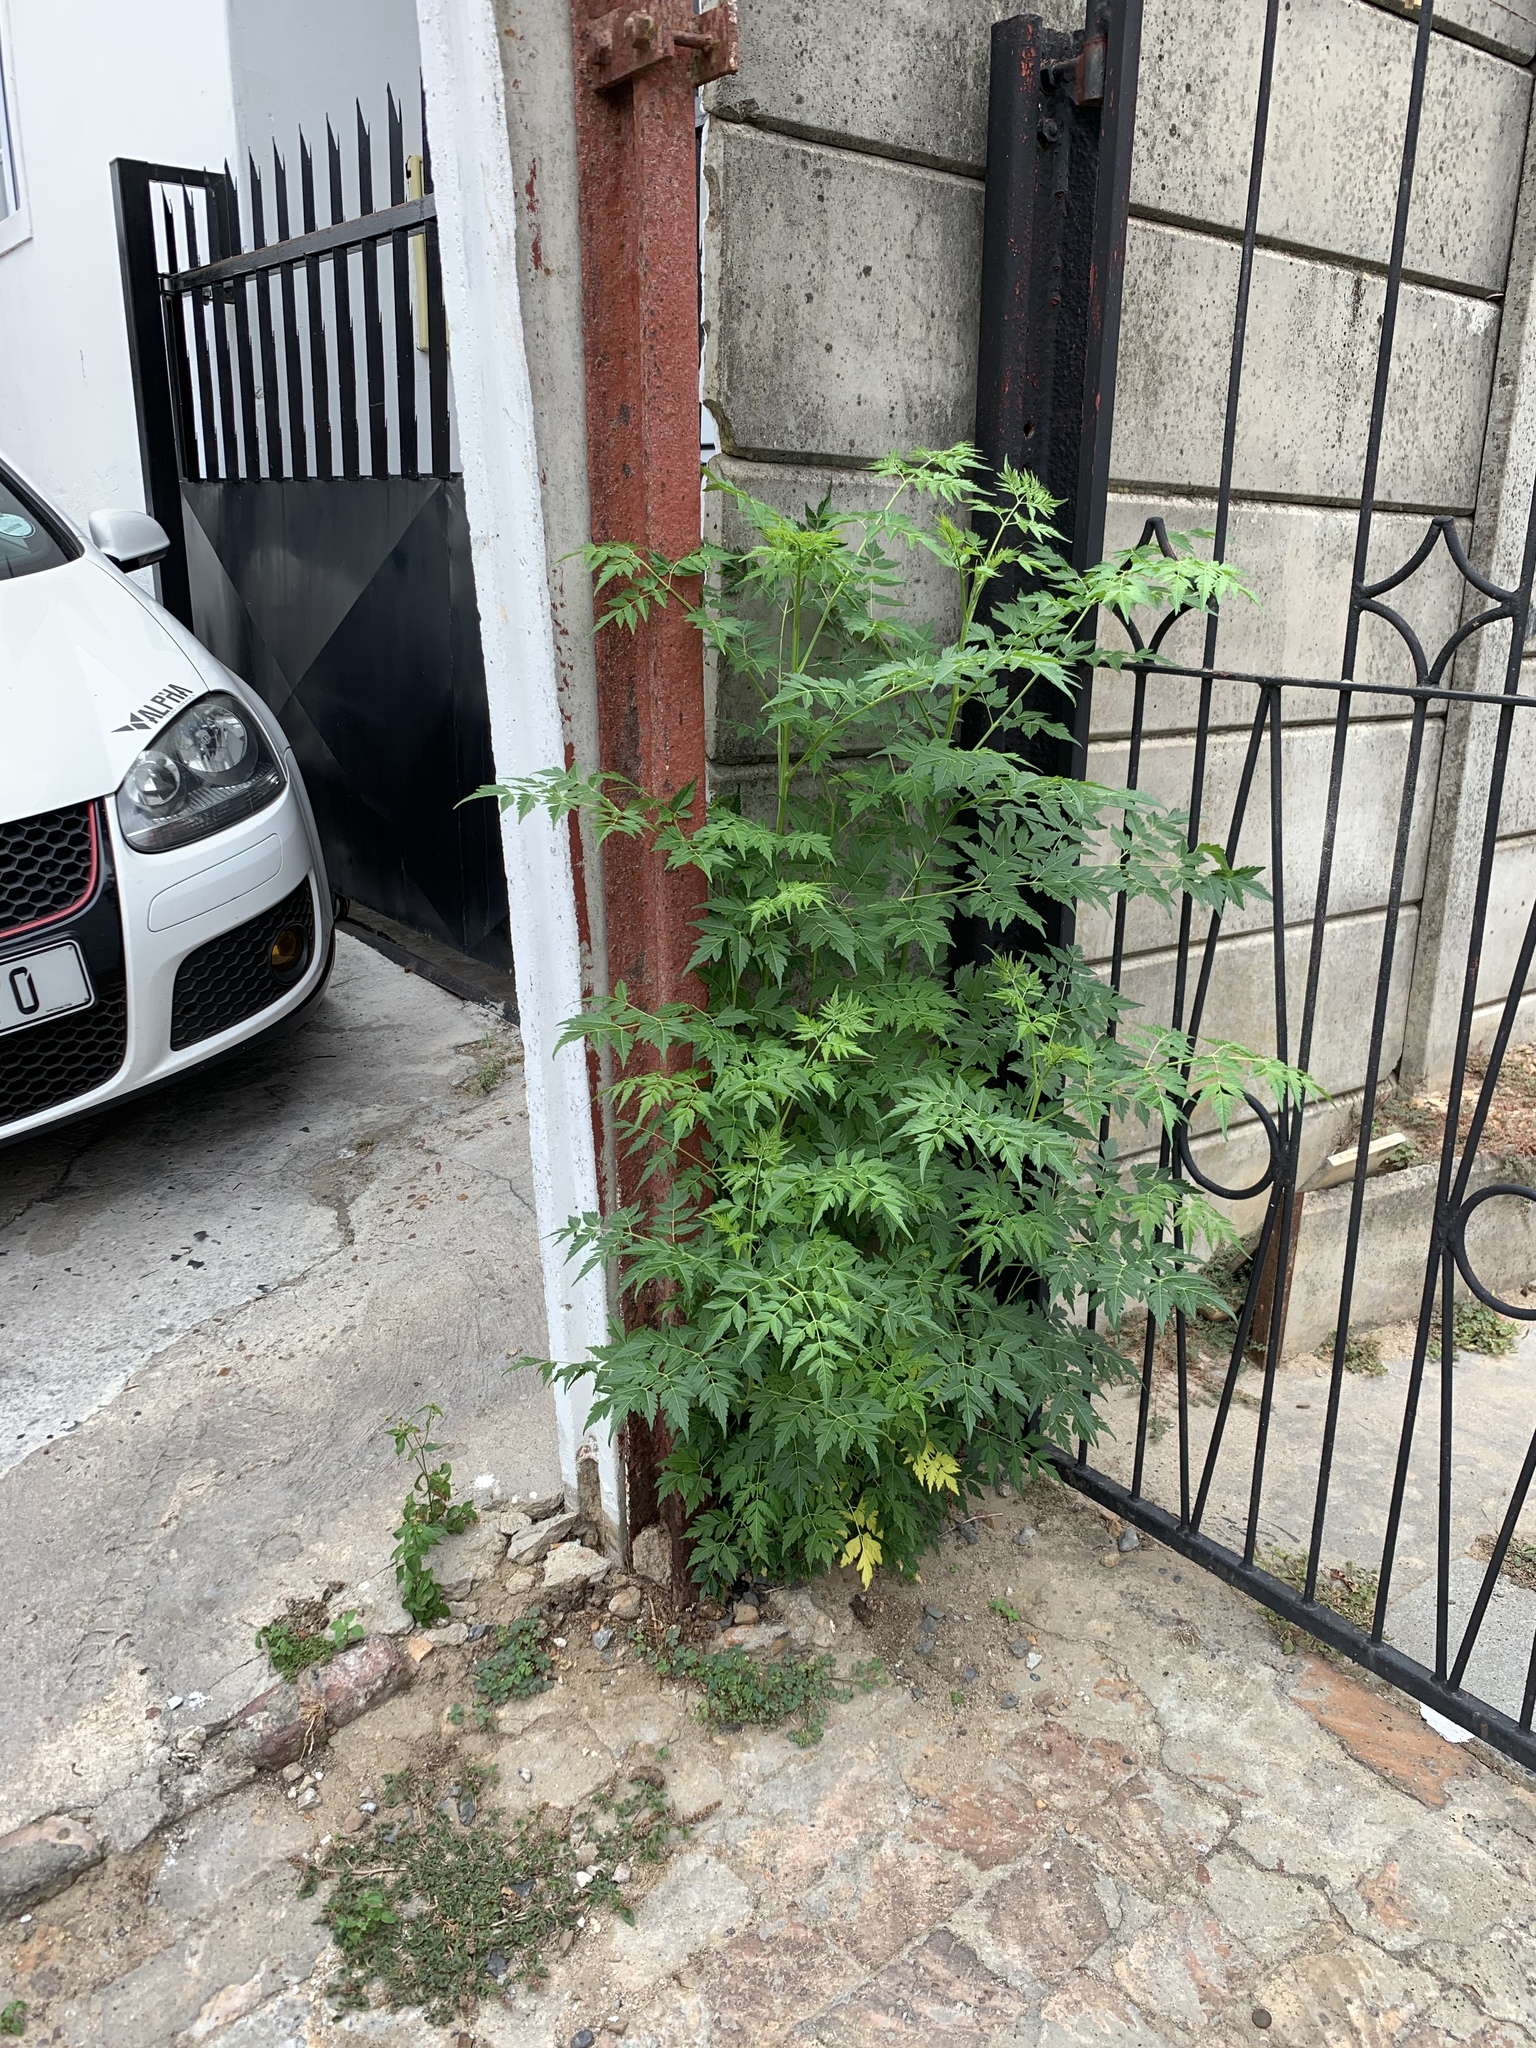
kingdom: Plantae
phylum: Tracheophyta
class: Magnoliopsida
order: Sapindales
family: Meliaceae
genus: Melia
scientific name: Melia azedarach
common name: Chinaberrytree
